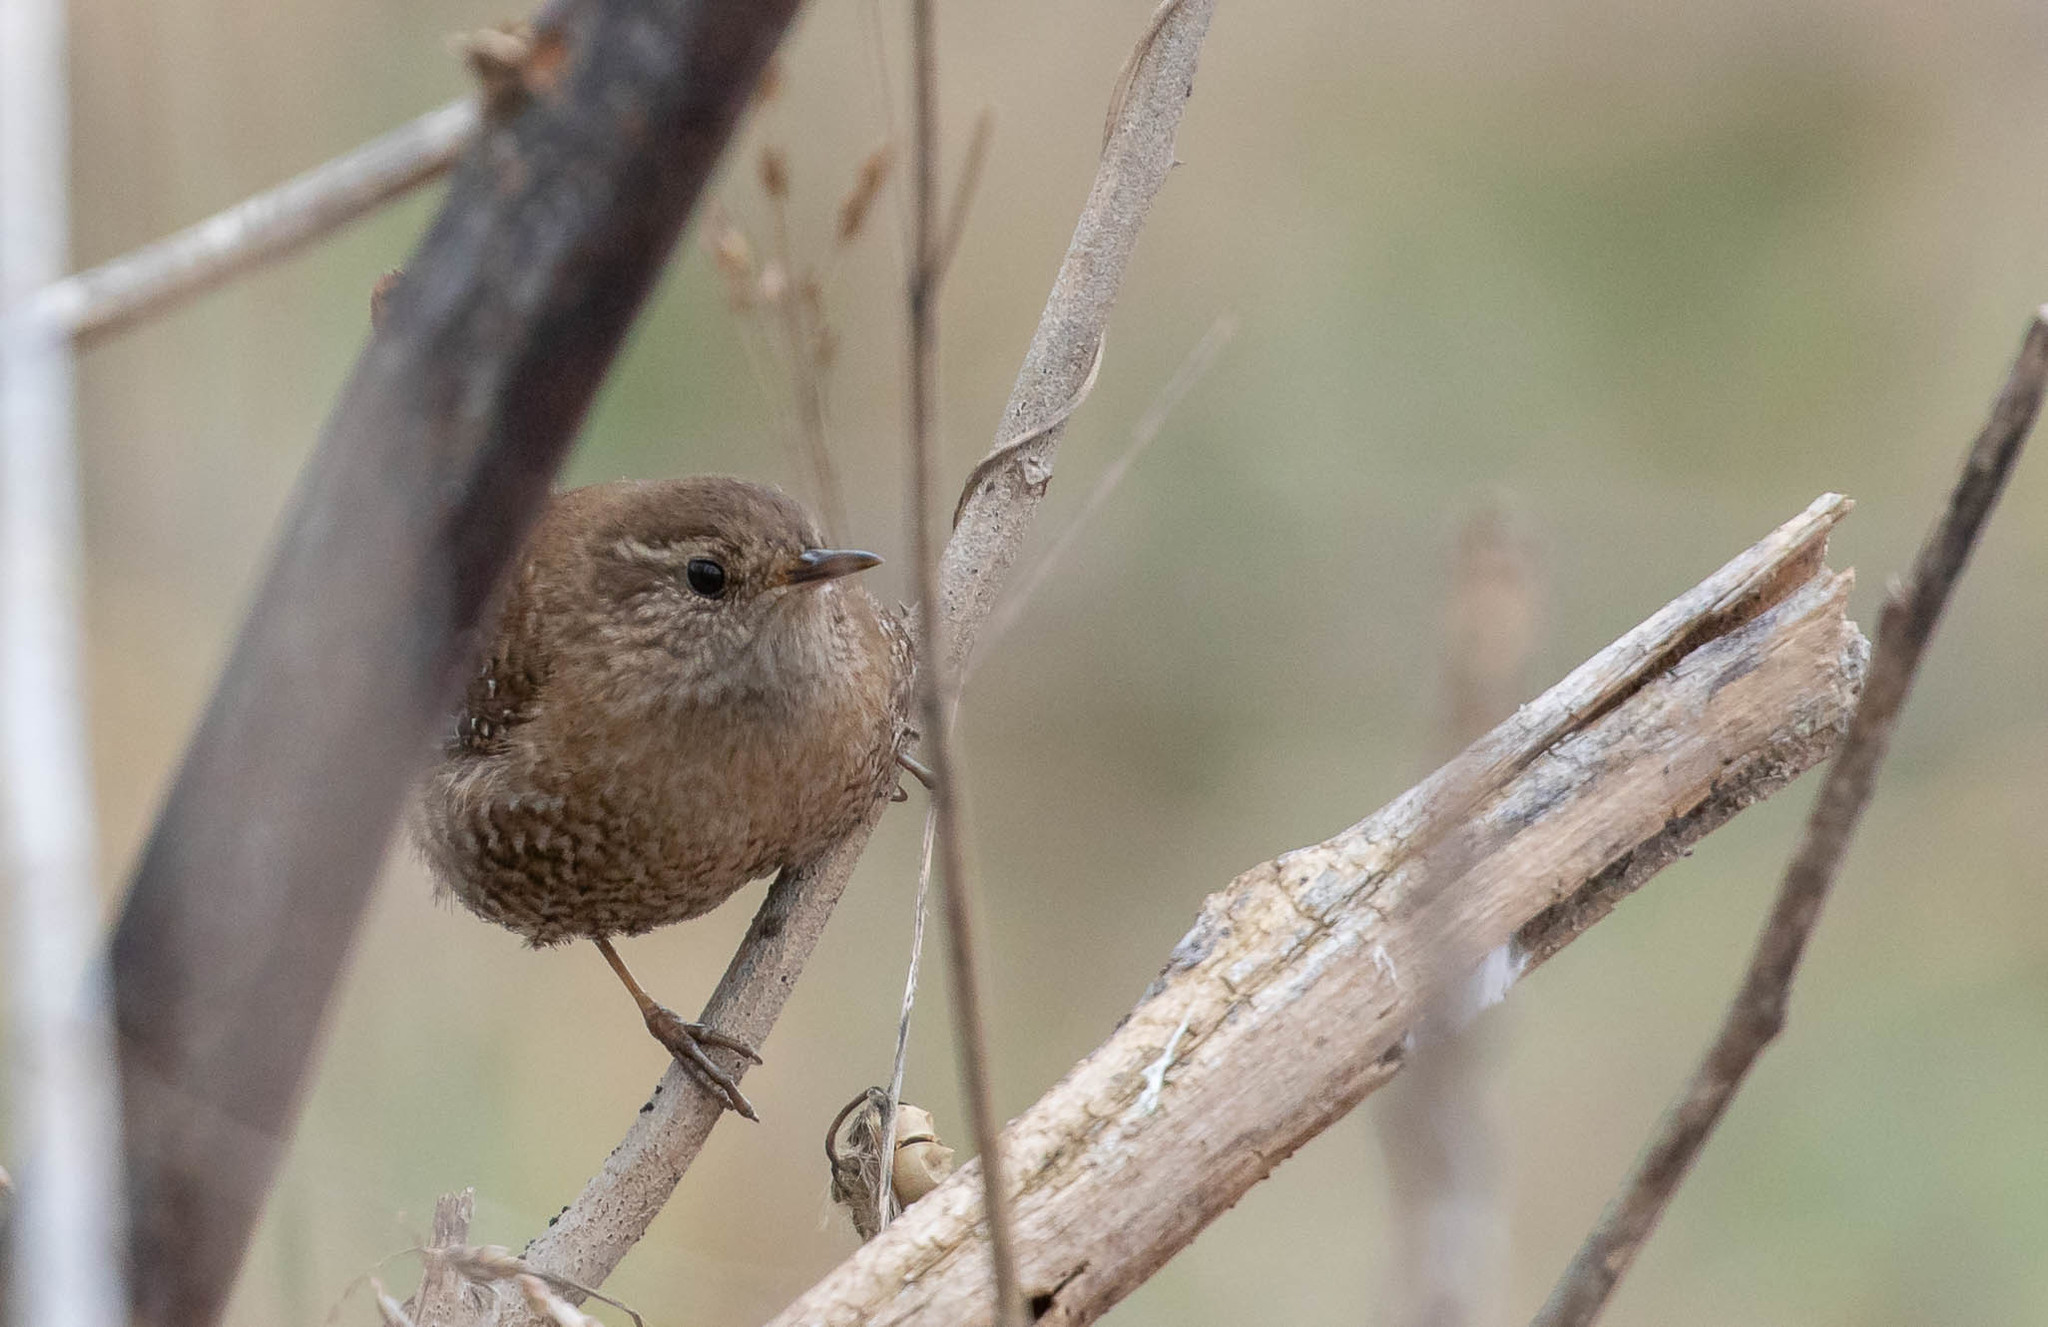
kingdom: Animalia
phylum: Chordata
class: Aves
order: Passeriformes
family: Troglodytidae
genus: Troglodytes
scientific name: Troglodytes hiemalis
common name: Winter wren
